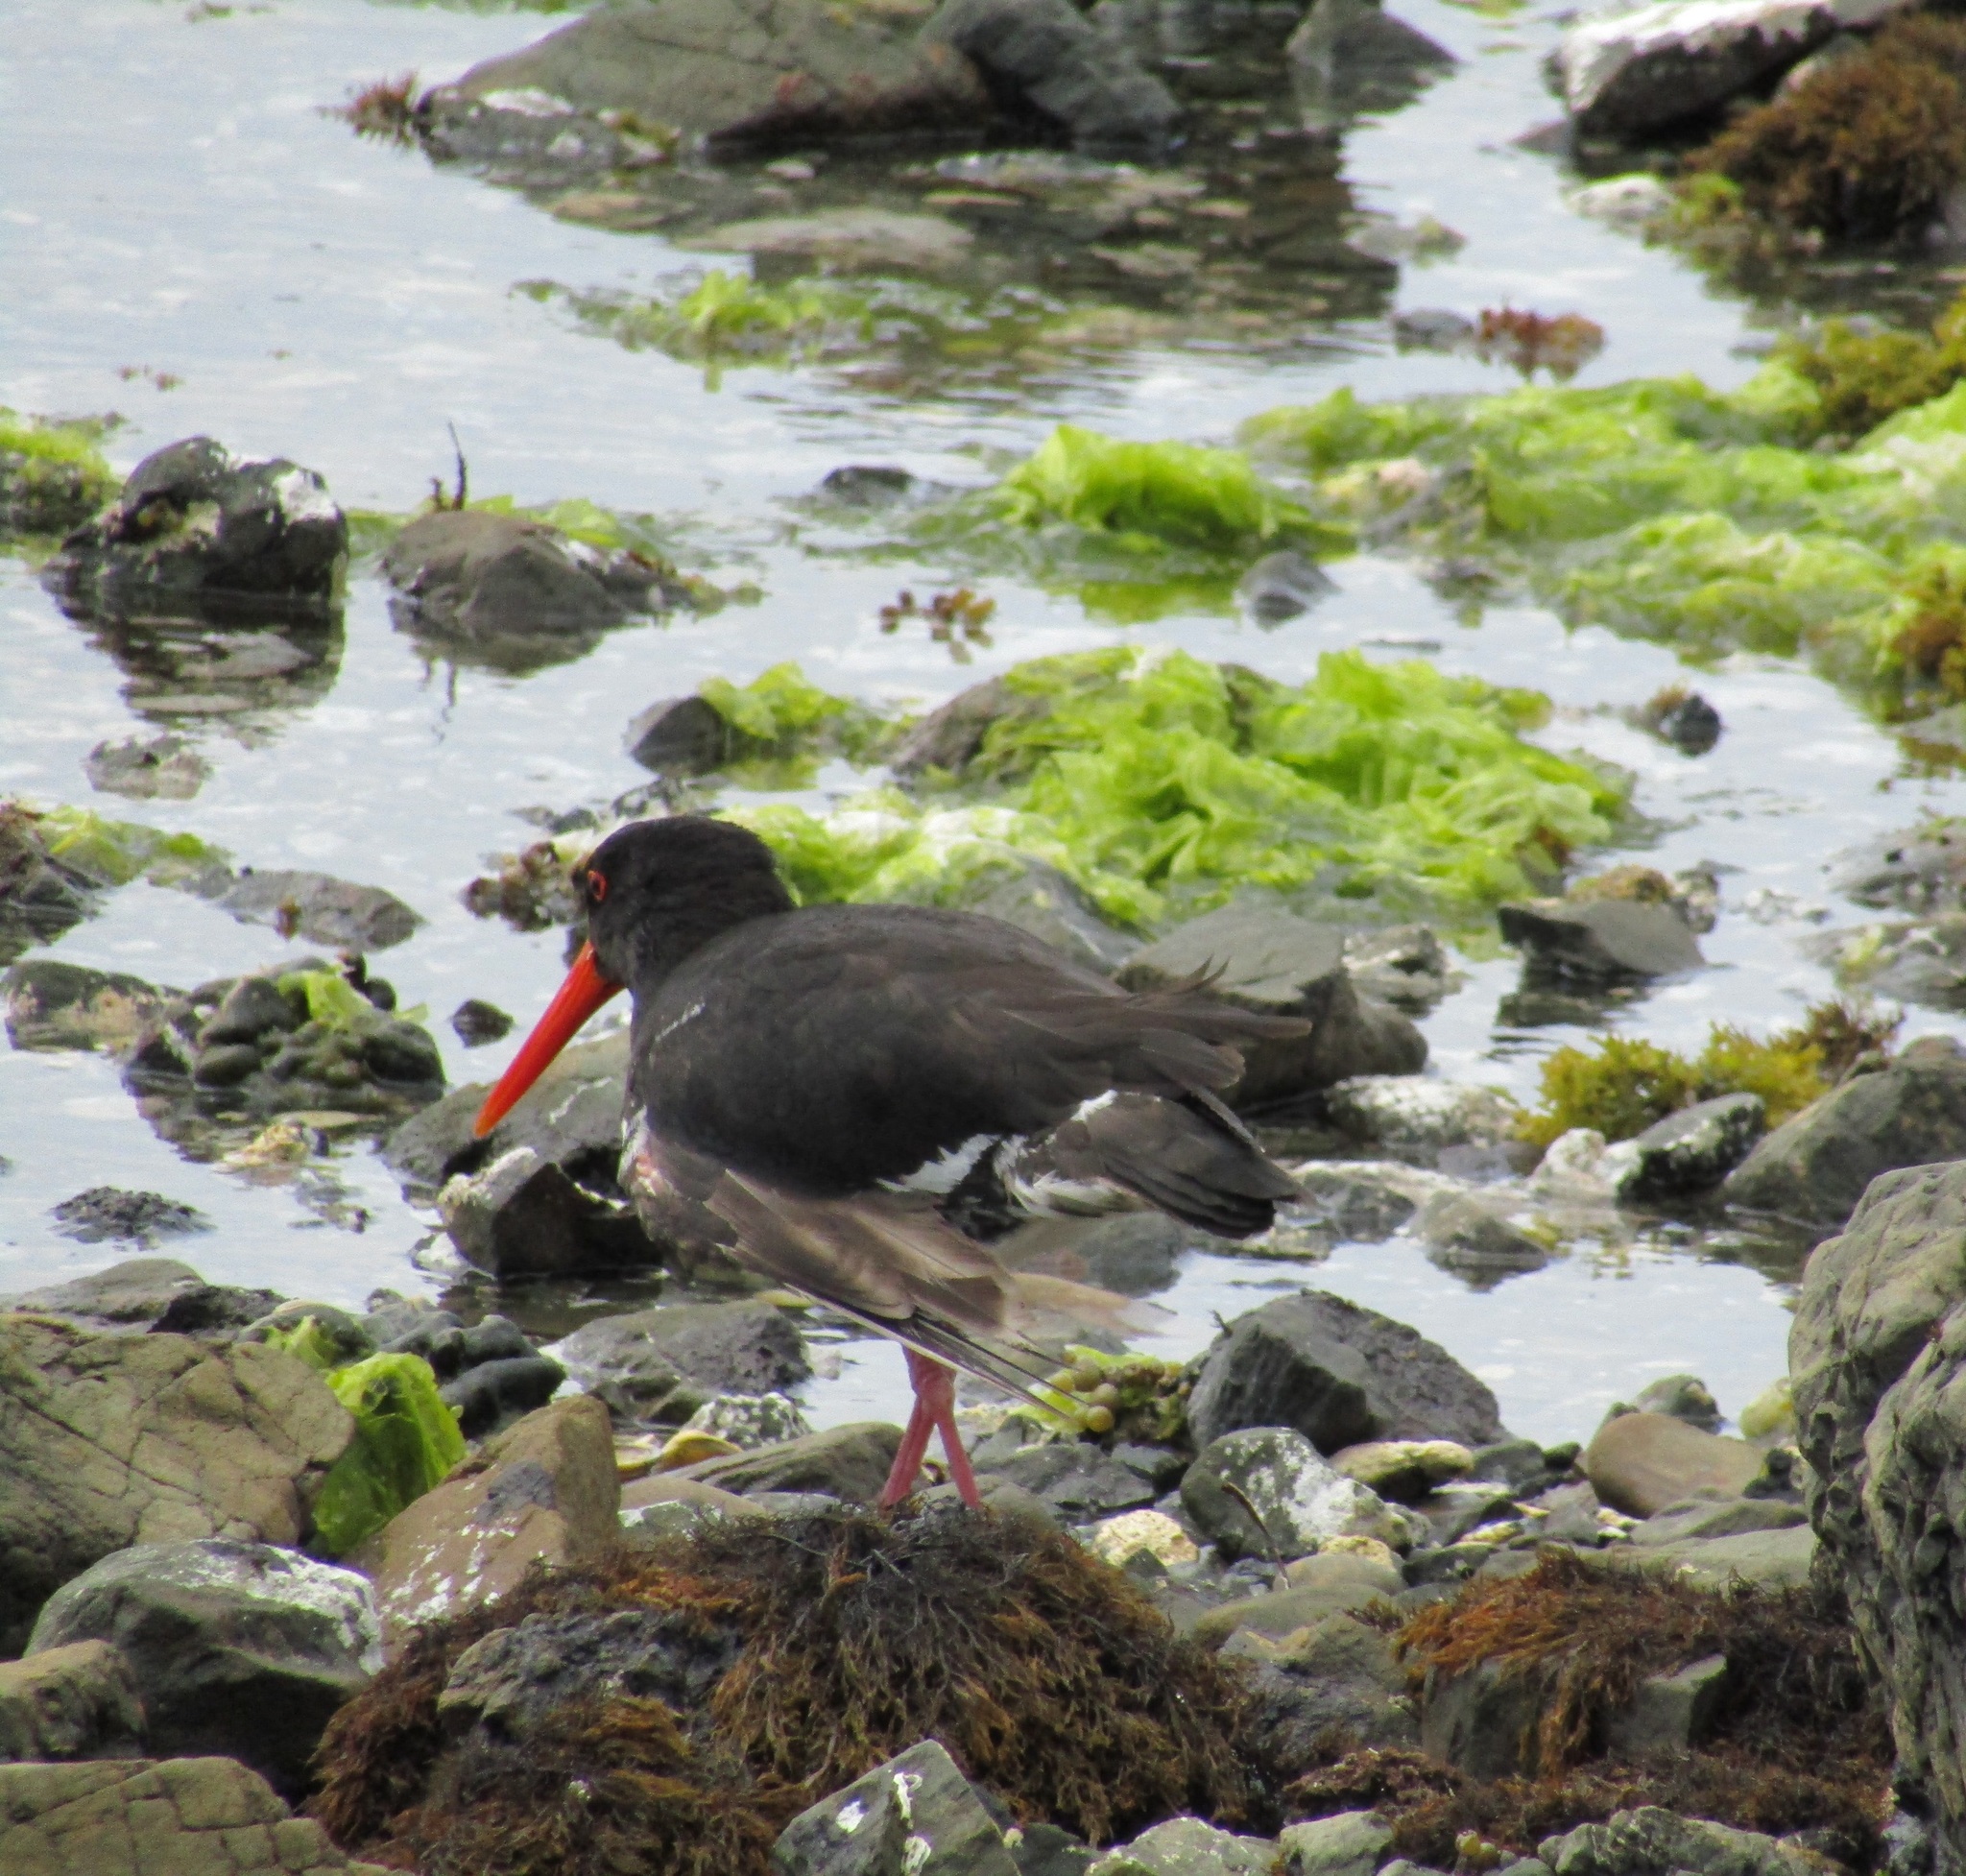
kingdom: Animalia
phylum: Chordata
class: Aves
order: Charadriiformes
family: Haematopodidae
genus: Haematopus
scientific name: Haematopus unicolor
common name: Variable oystercatcher
